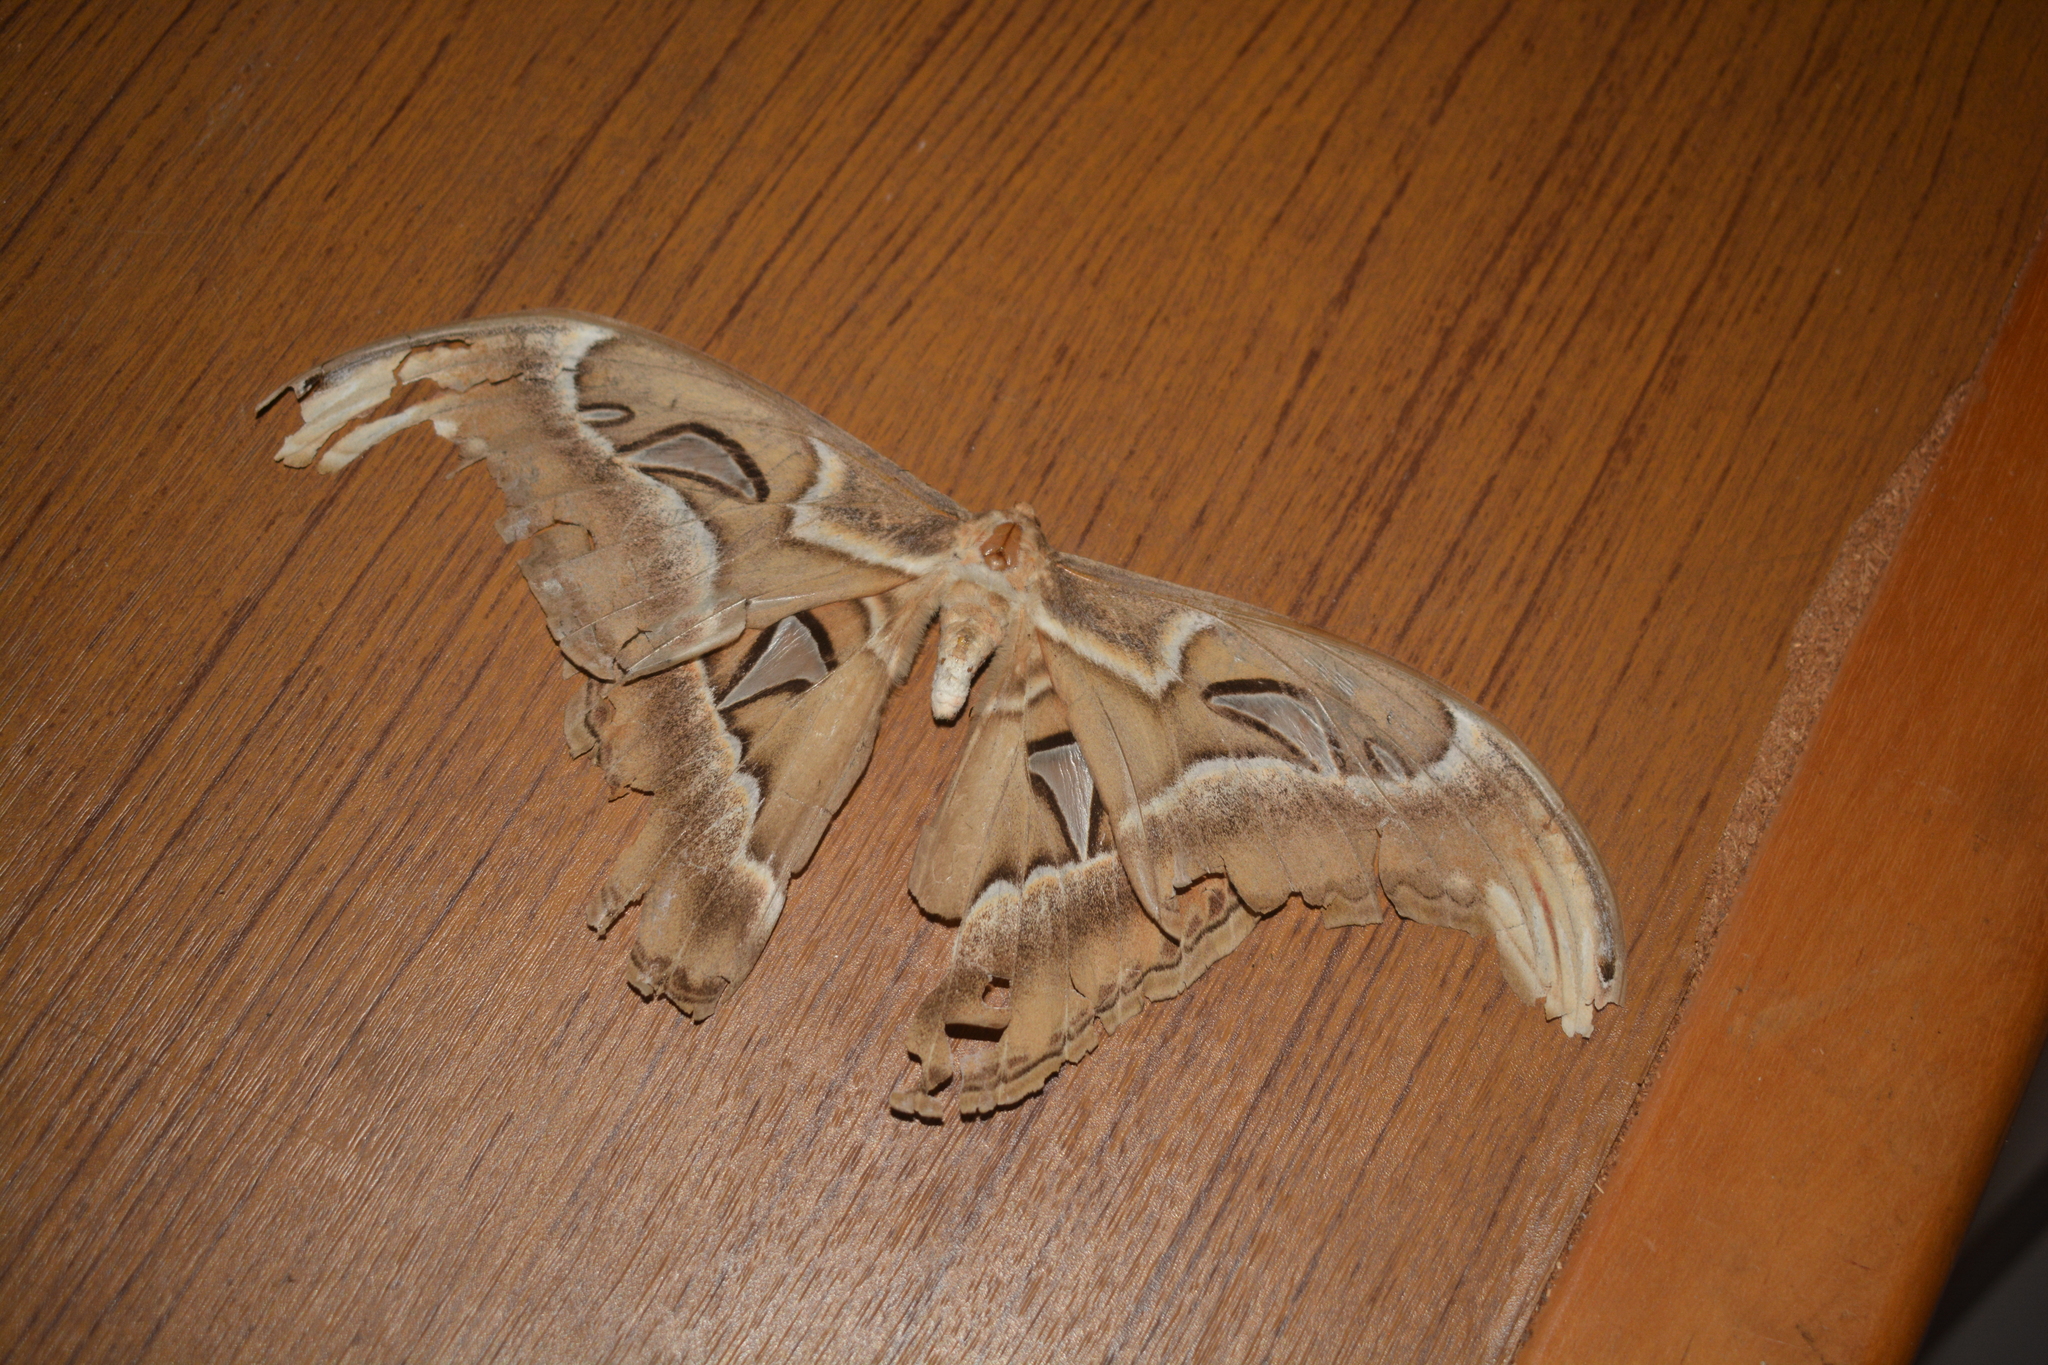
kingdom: Animalia
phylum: Arthropoda
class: Insecta
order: Lepidoptera
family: Saturniidae
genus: Attacus
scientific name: Attacus atlas
